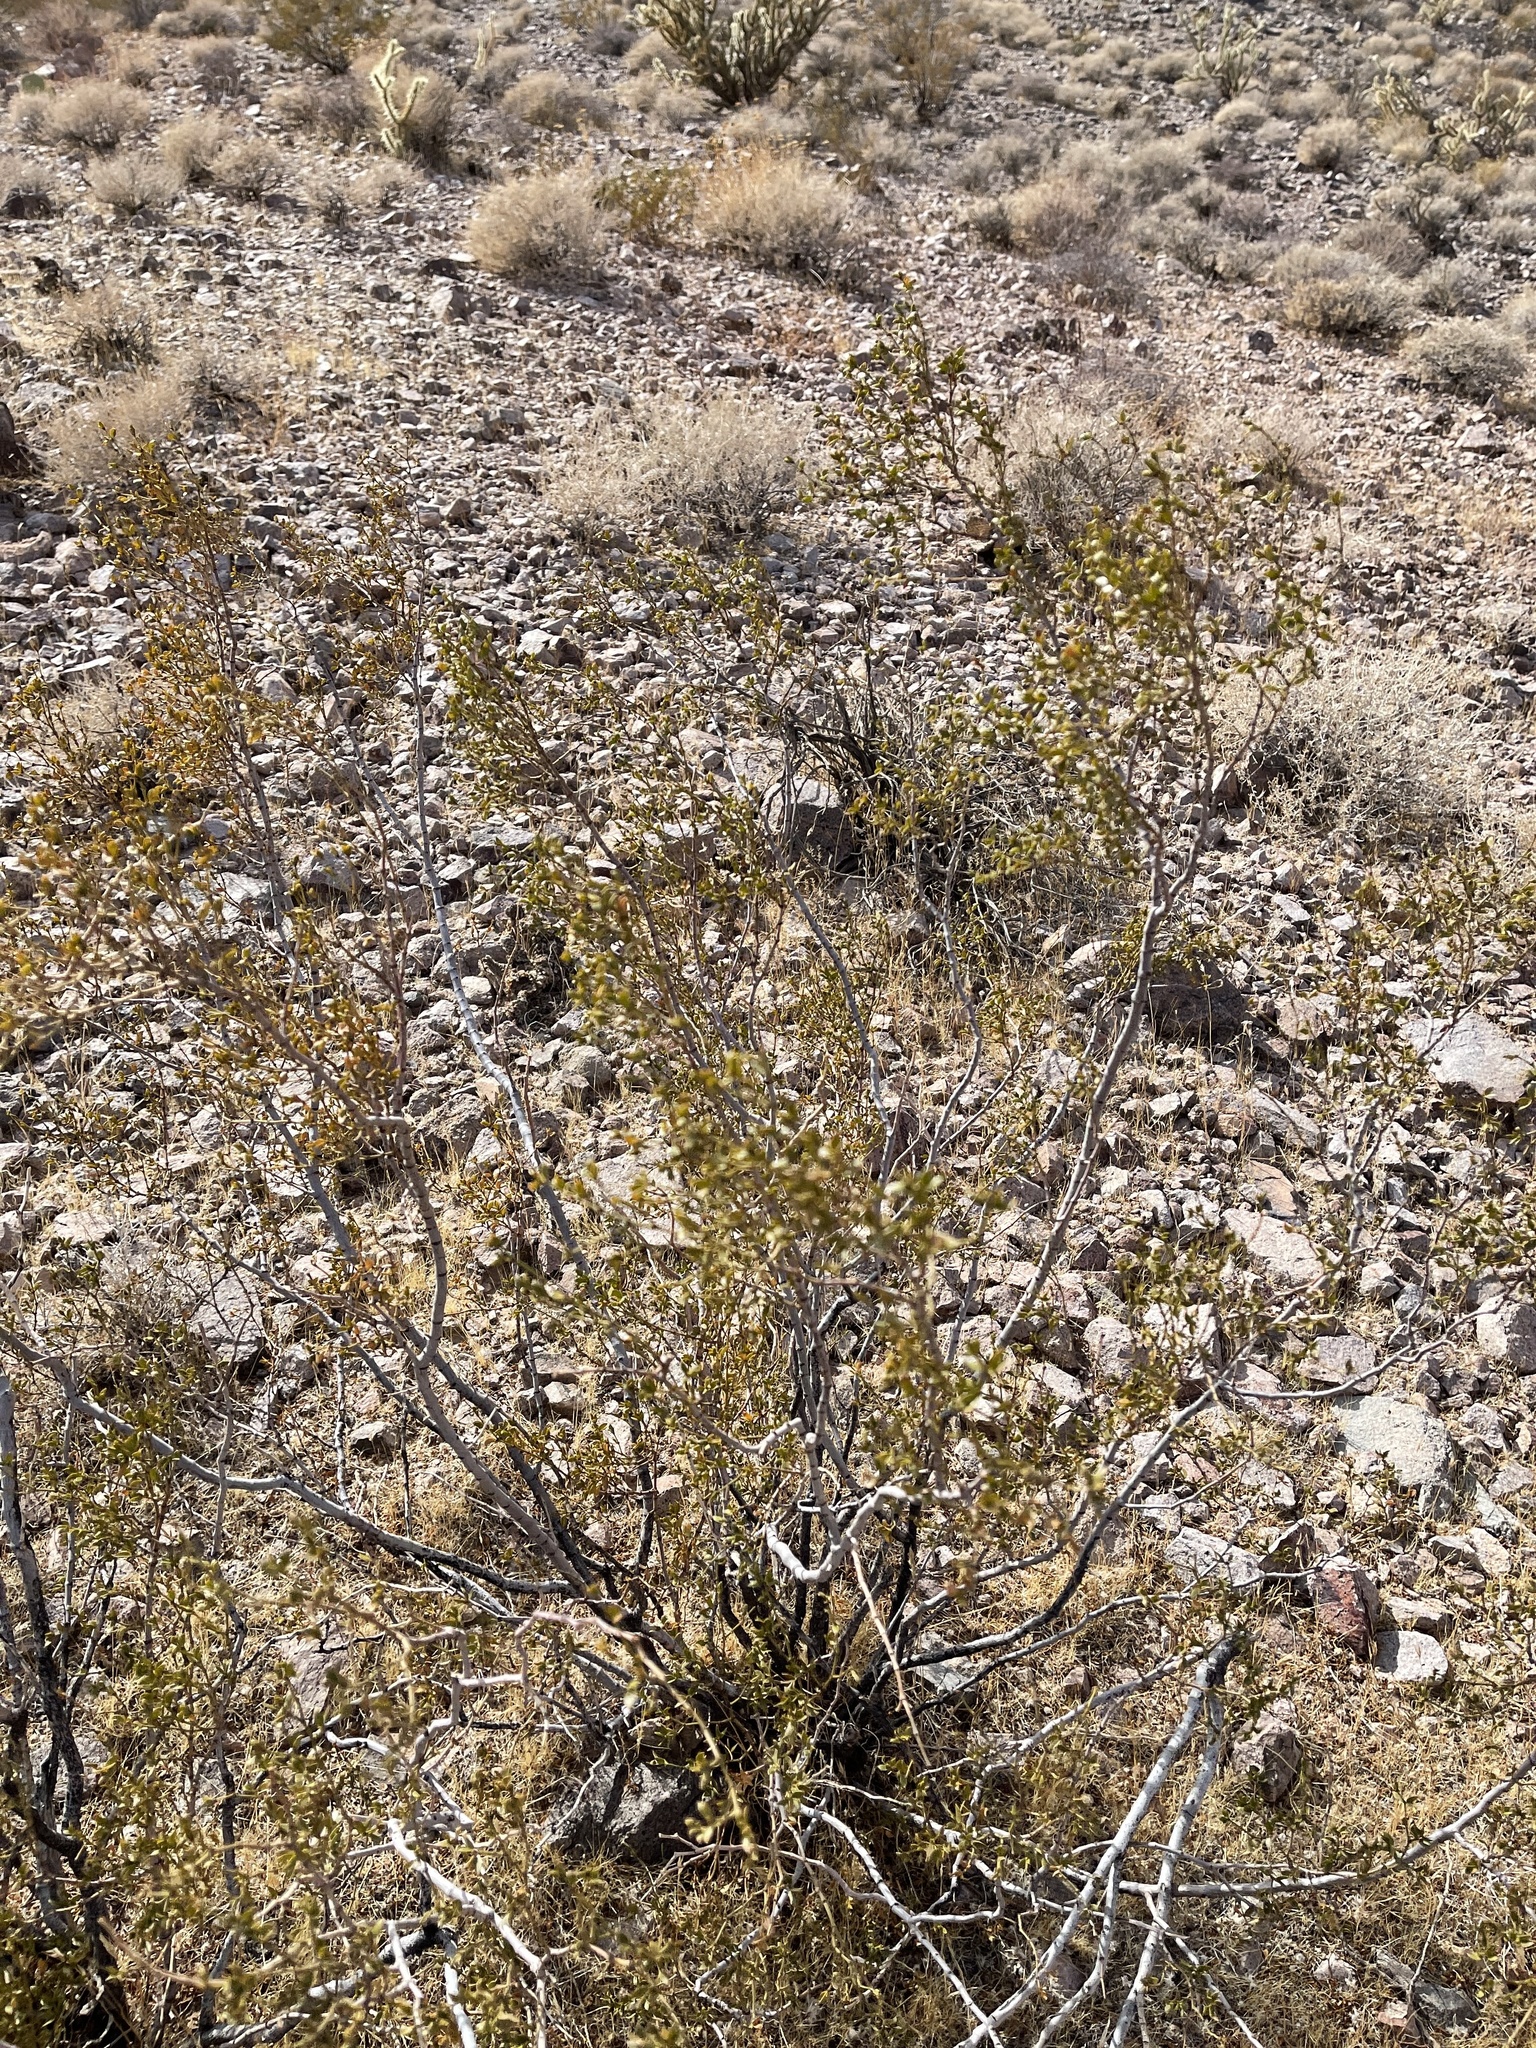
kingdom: Plantae
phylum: Tracheophyta
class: Magnoliopsida
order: Zygophyllales
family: Zygophyllaceae
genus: Larrea
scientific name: Larrea tridentata
